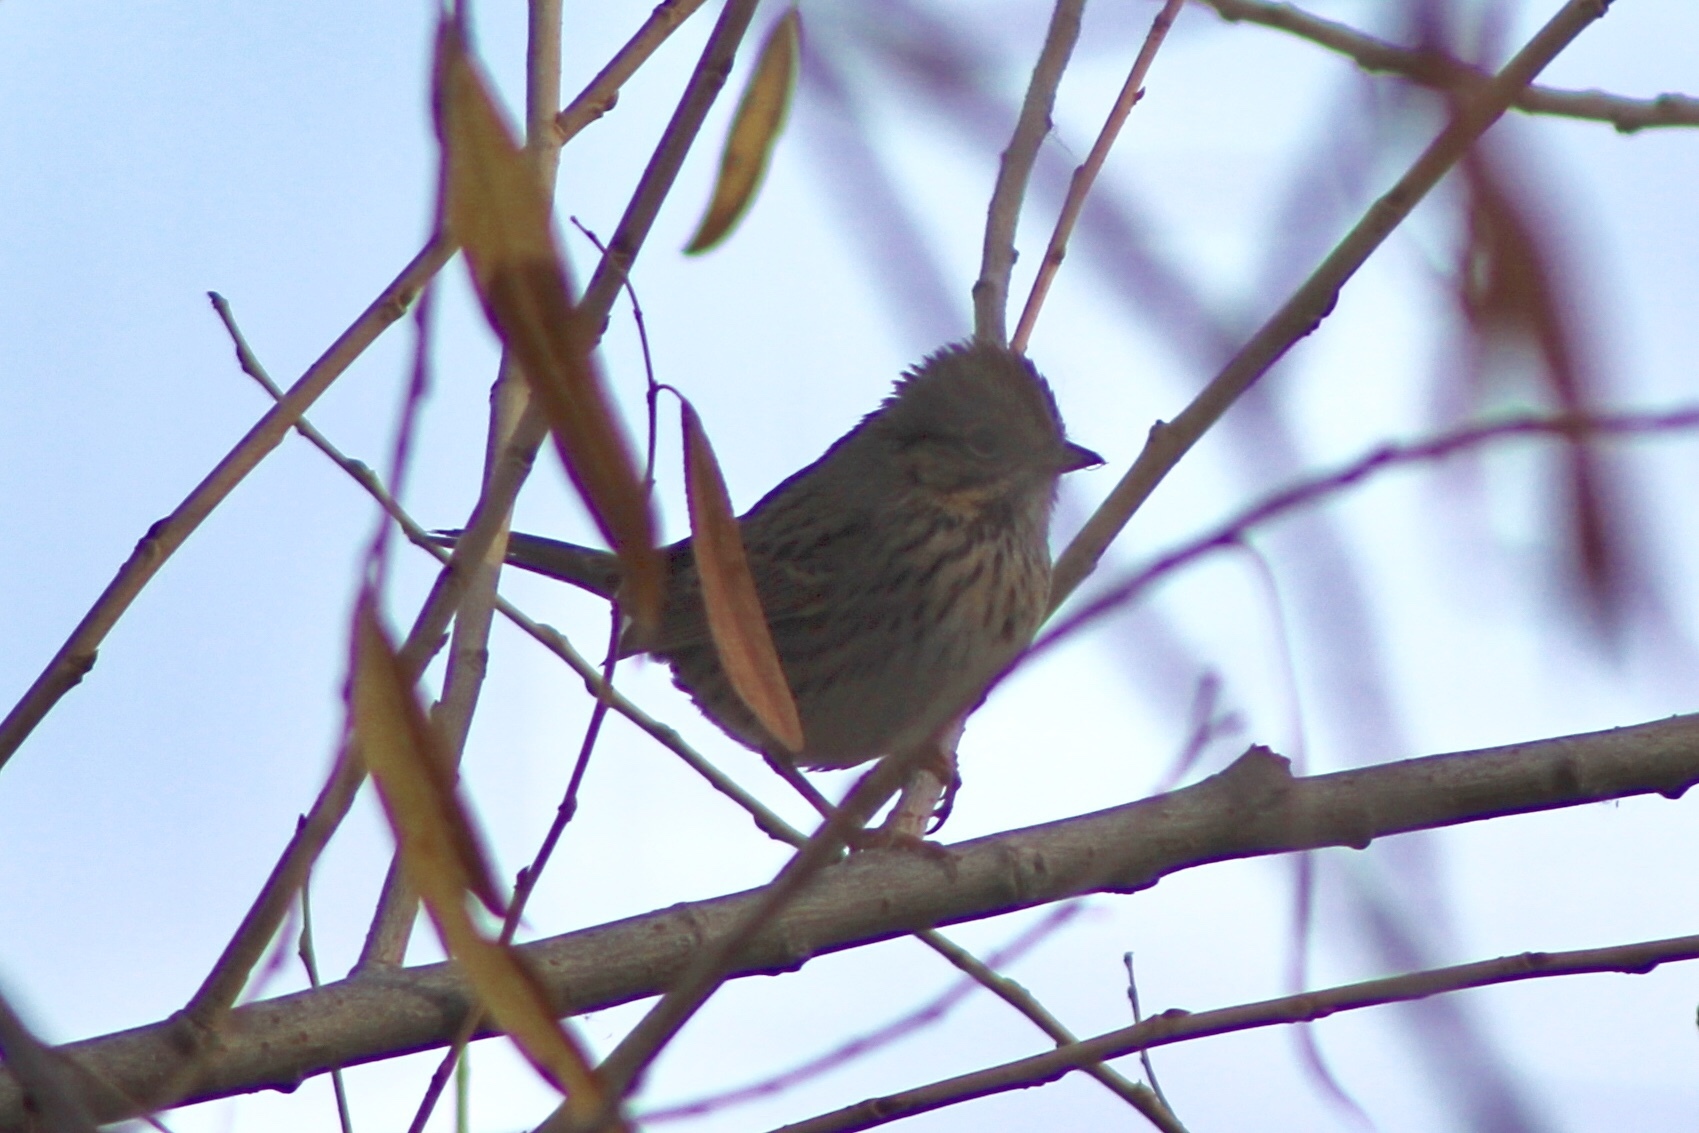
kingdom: Animalia
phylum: Chordata
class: Aves
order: Passeriformes
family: Passerellidae
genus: Melospiza
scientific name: Melospiza lincolnii
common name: Lincoln's sparrow
